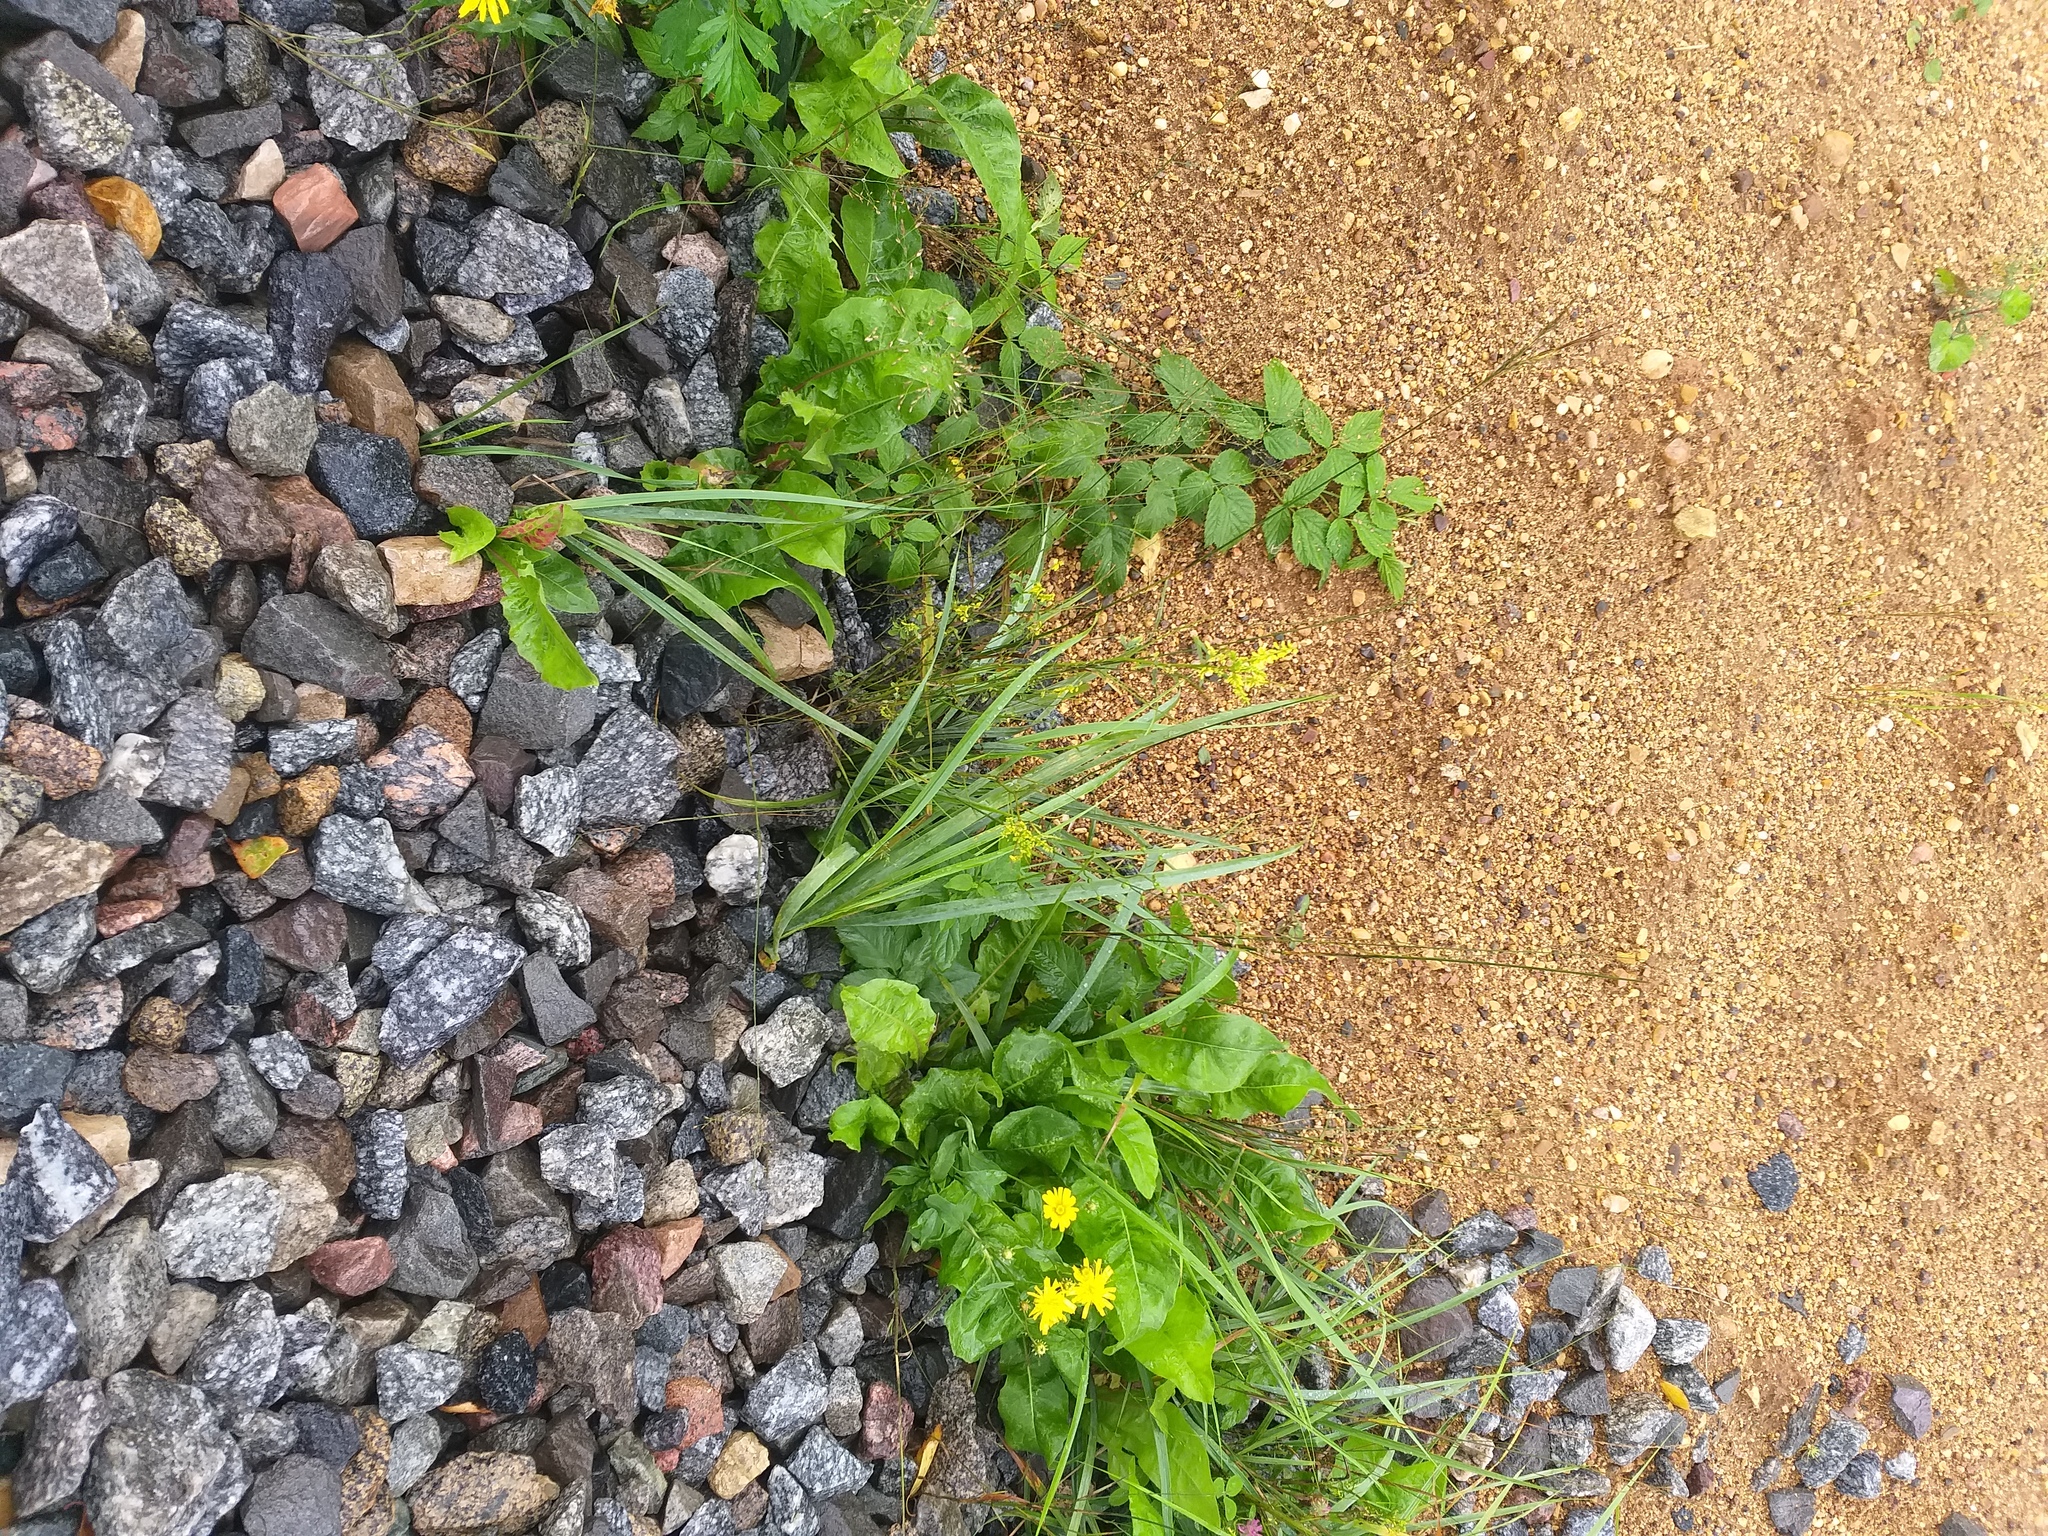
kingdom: Plantae
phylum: Tracheophyta
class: Magnoliopsida
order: Fabales
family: Fabaceae
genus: Melilotus
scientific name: Melilotus officinalis
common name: Sweetclover
